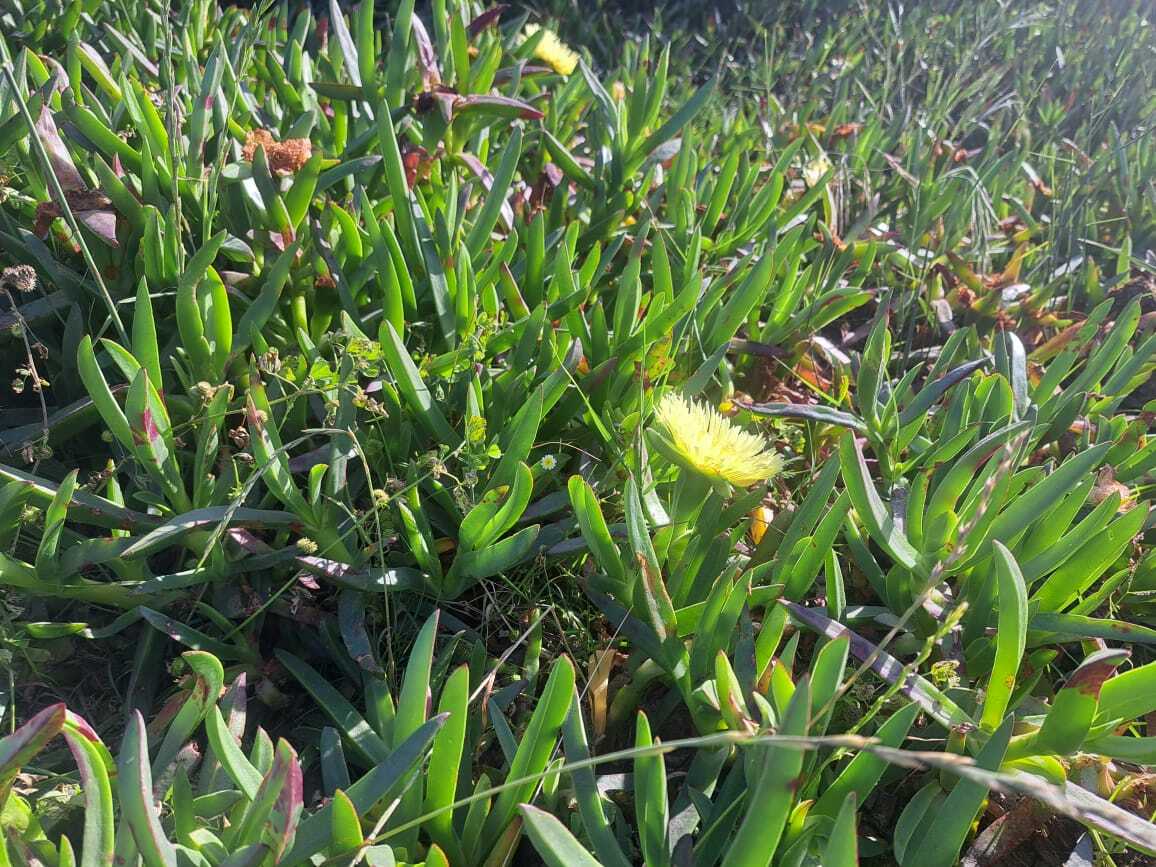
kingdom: Plantae
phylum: Tracheophyta
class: Magnoliopsida
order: Caryophyllales
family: Aizoaceae
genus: Carpobrotus
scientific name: Carpobrotus edulis
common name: Hottentot-fig
